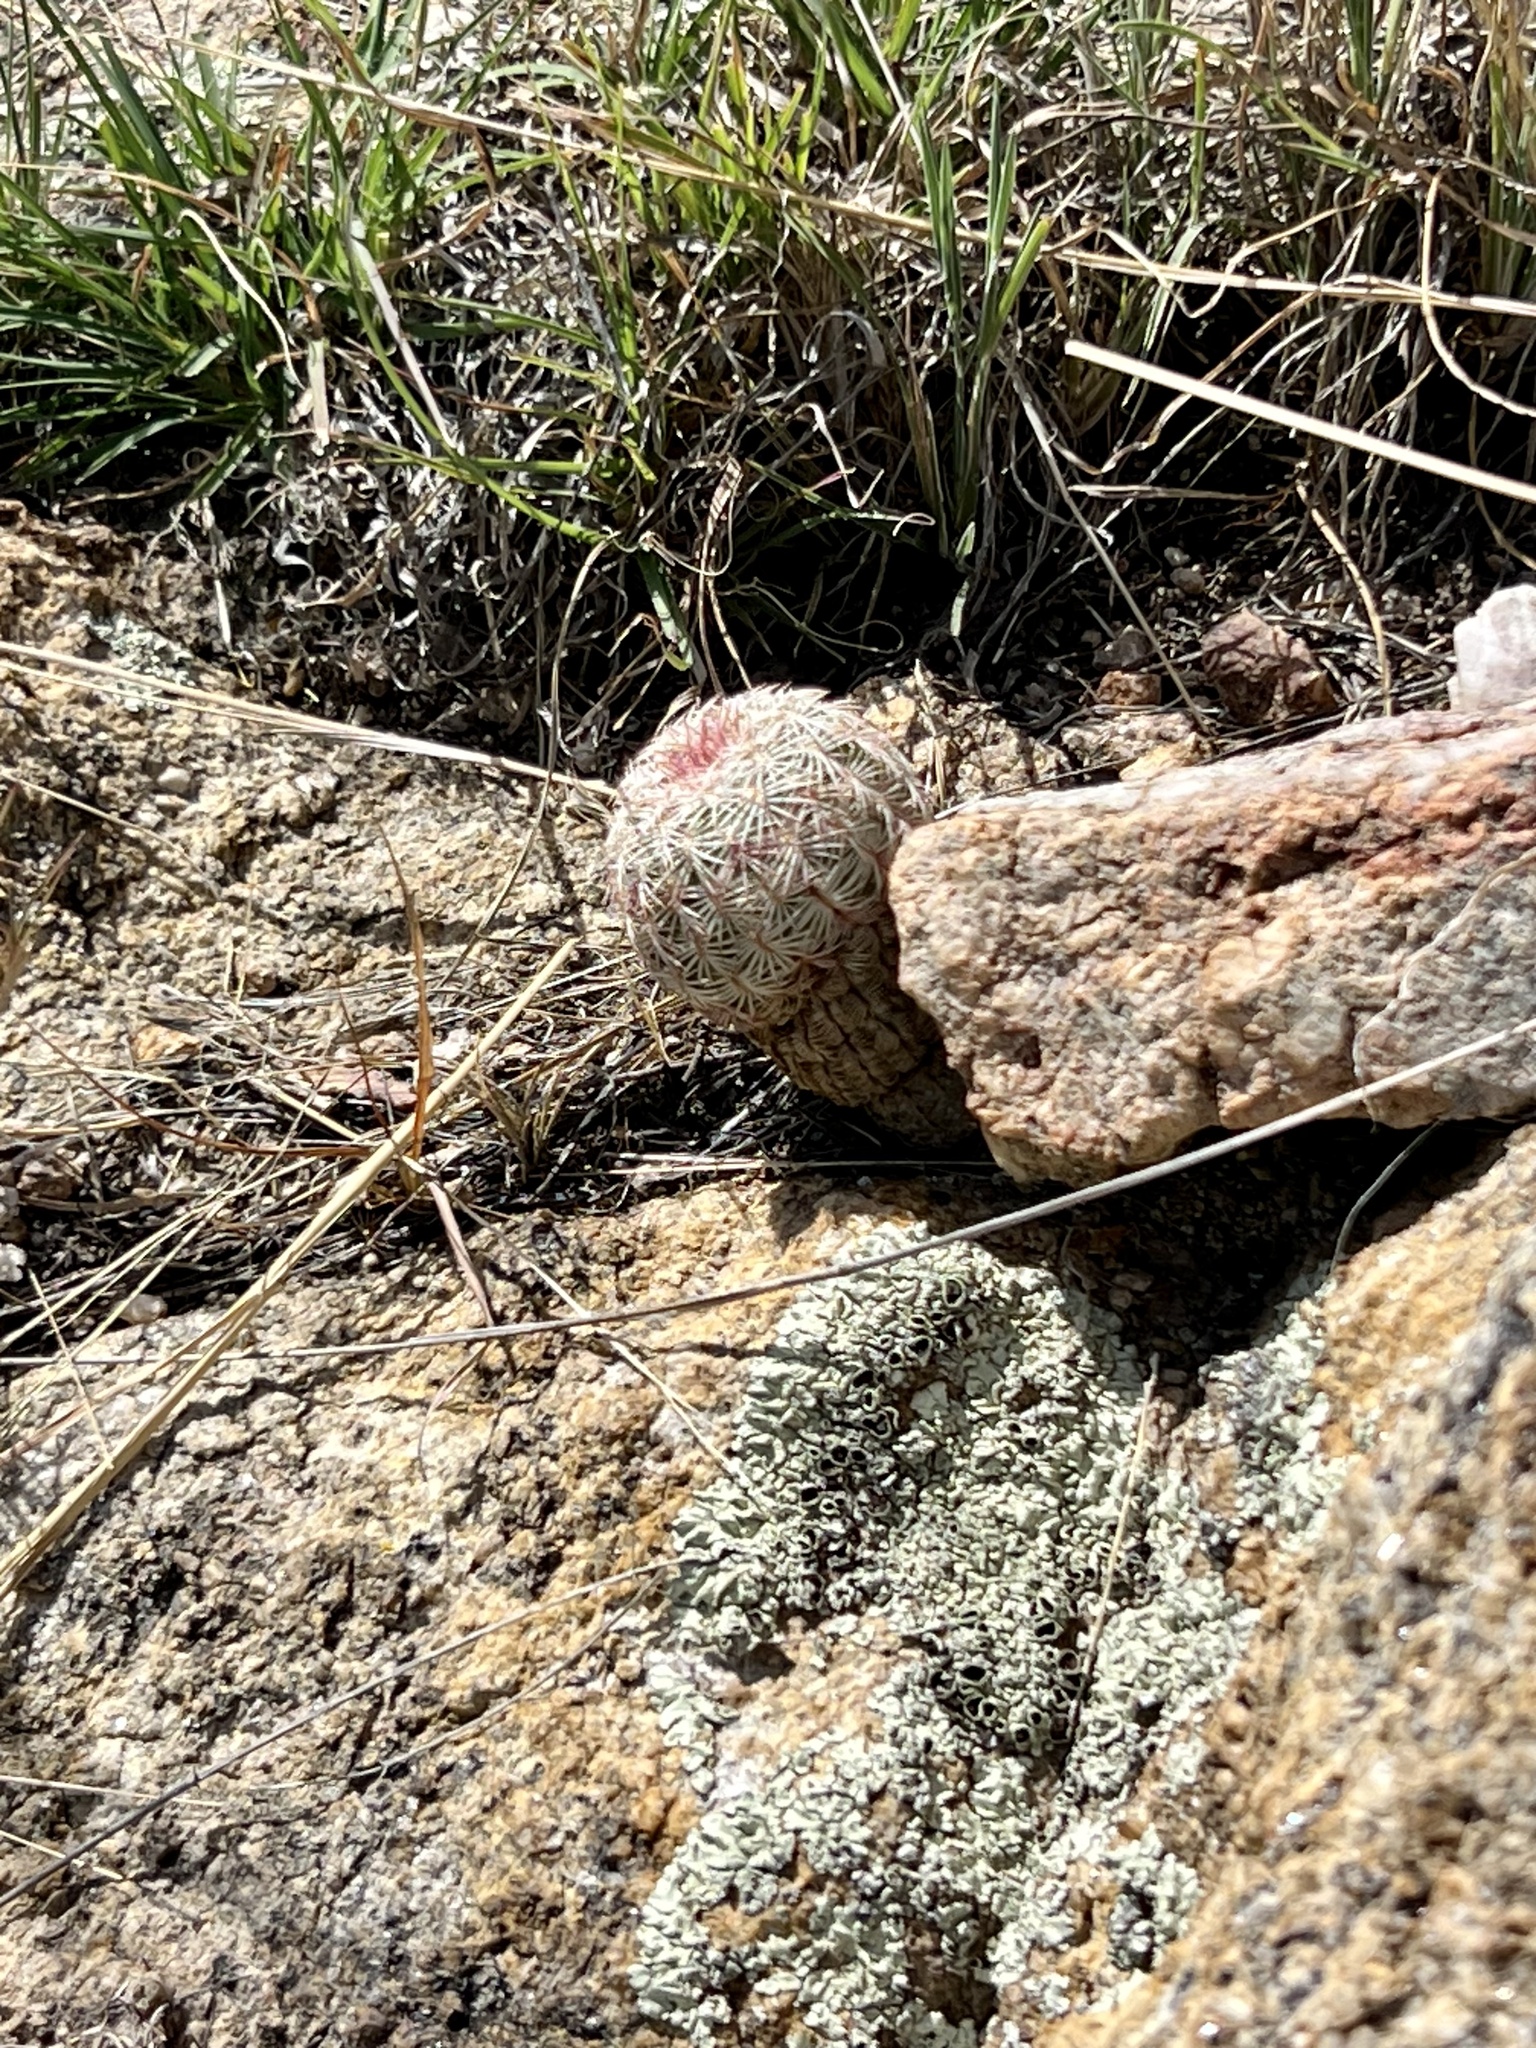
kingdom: Plantae
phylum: Tracheophyta
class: Magnoliopsida
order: Caryophyllales
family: Cactaceae
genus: Echinocereus
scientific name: Echinocereus rigidissimus
